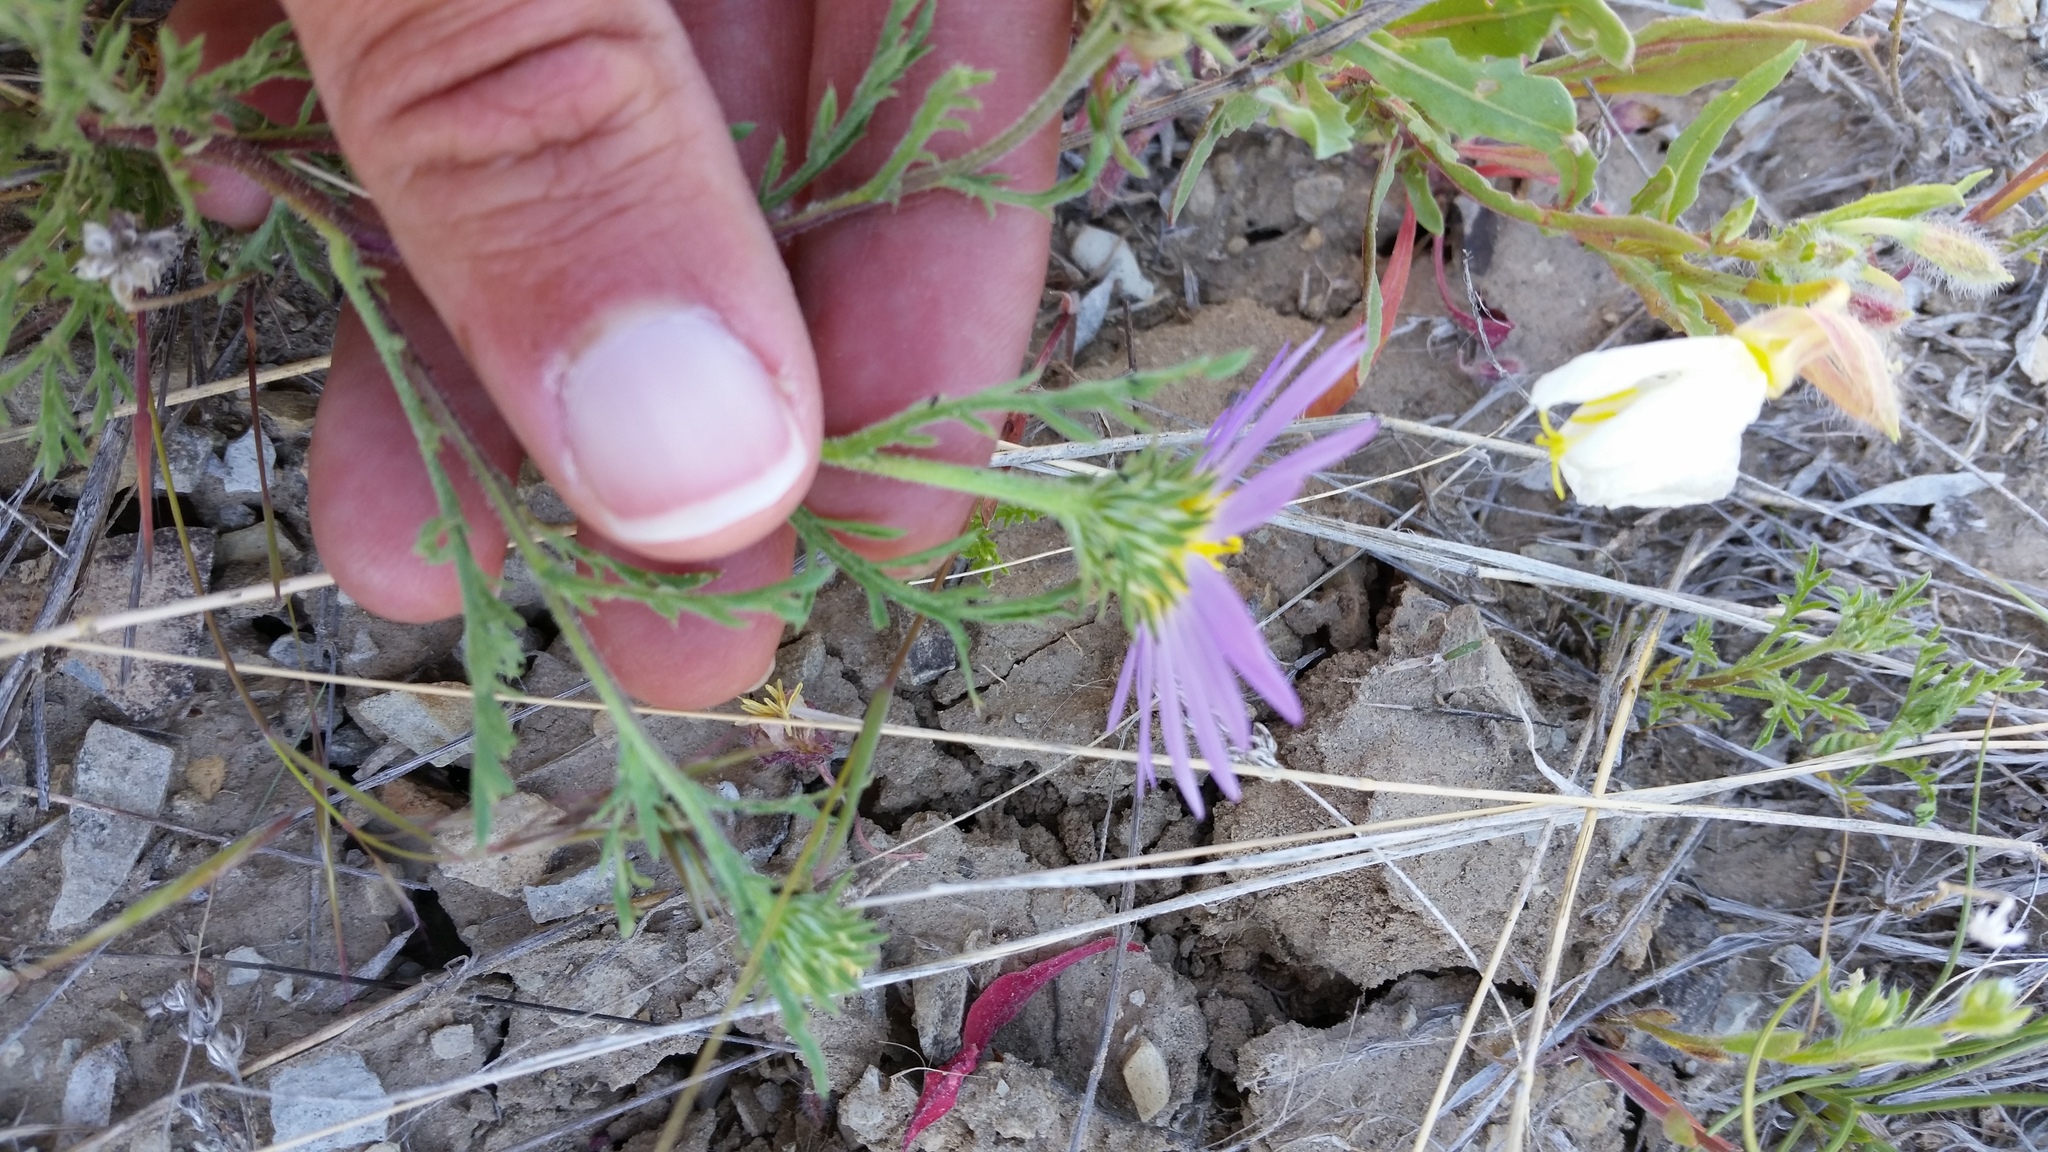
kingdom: Plantae
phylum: Tracheophyta
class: Magnoliopsida
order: Asterales
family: Asteraceae
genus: Machaeranthera
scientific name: Machaeranthera tanacetifolia
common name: Tansy-aster
